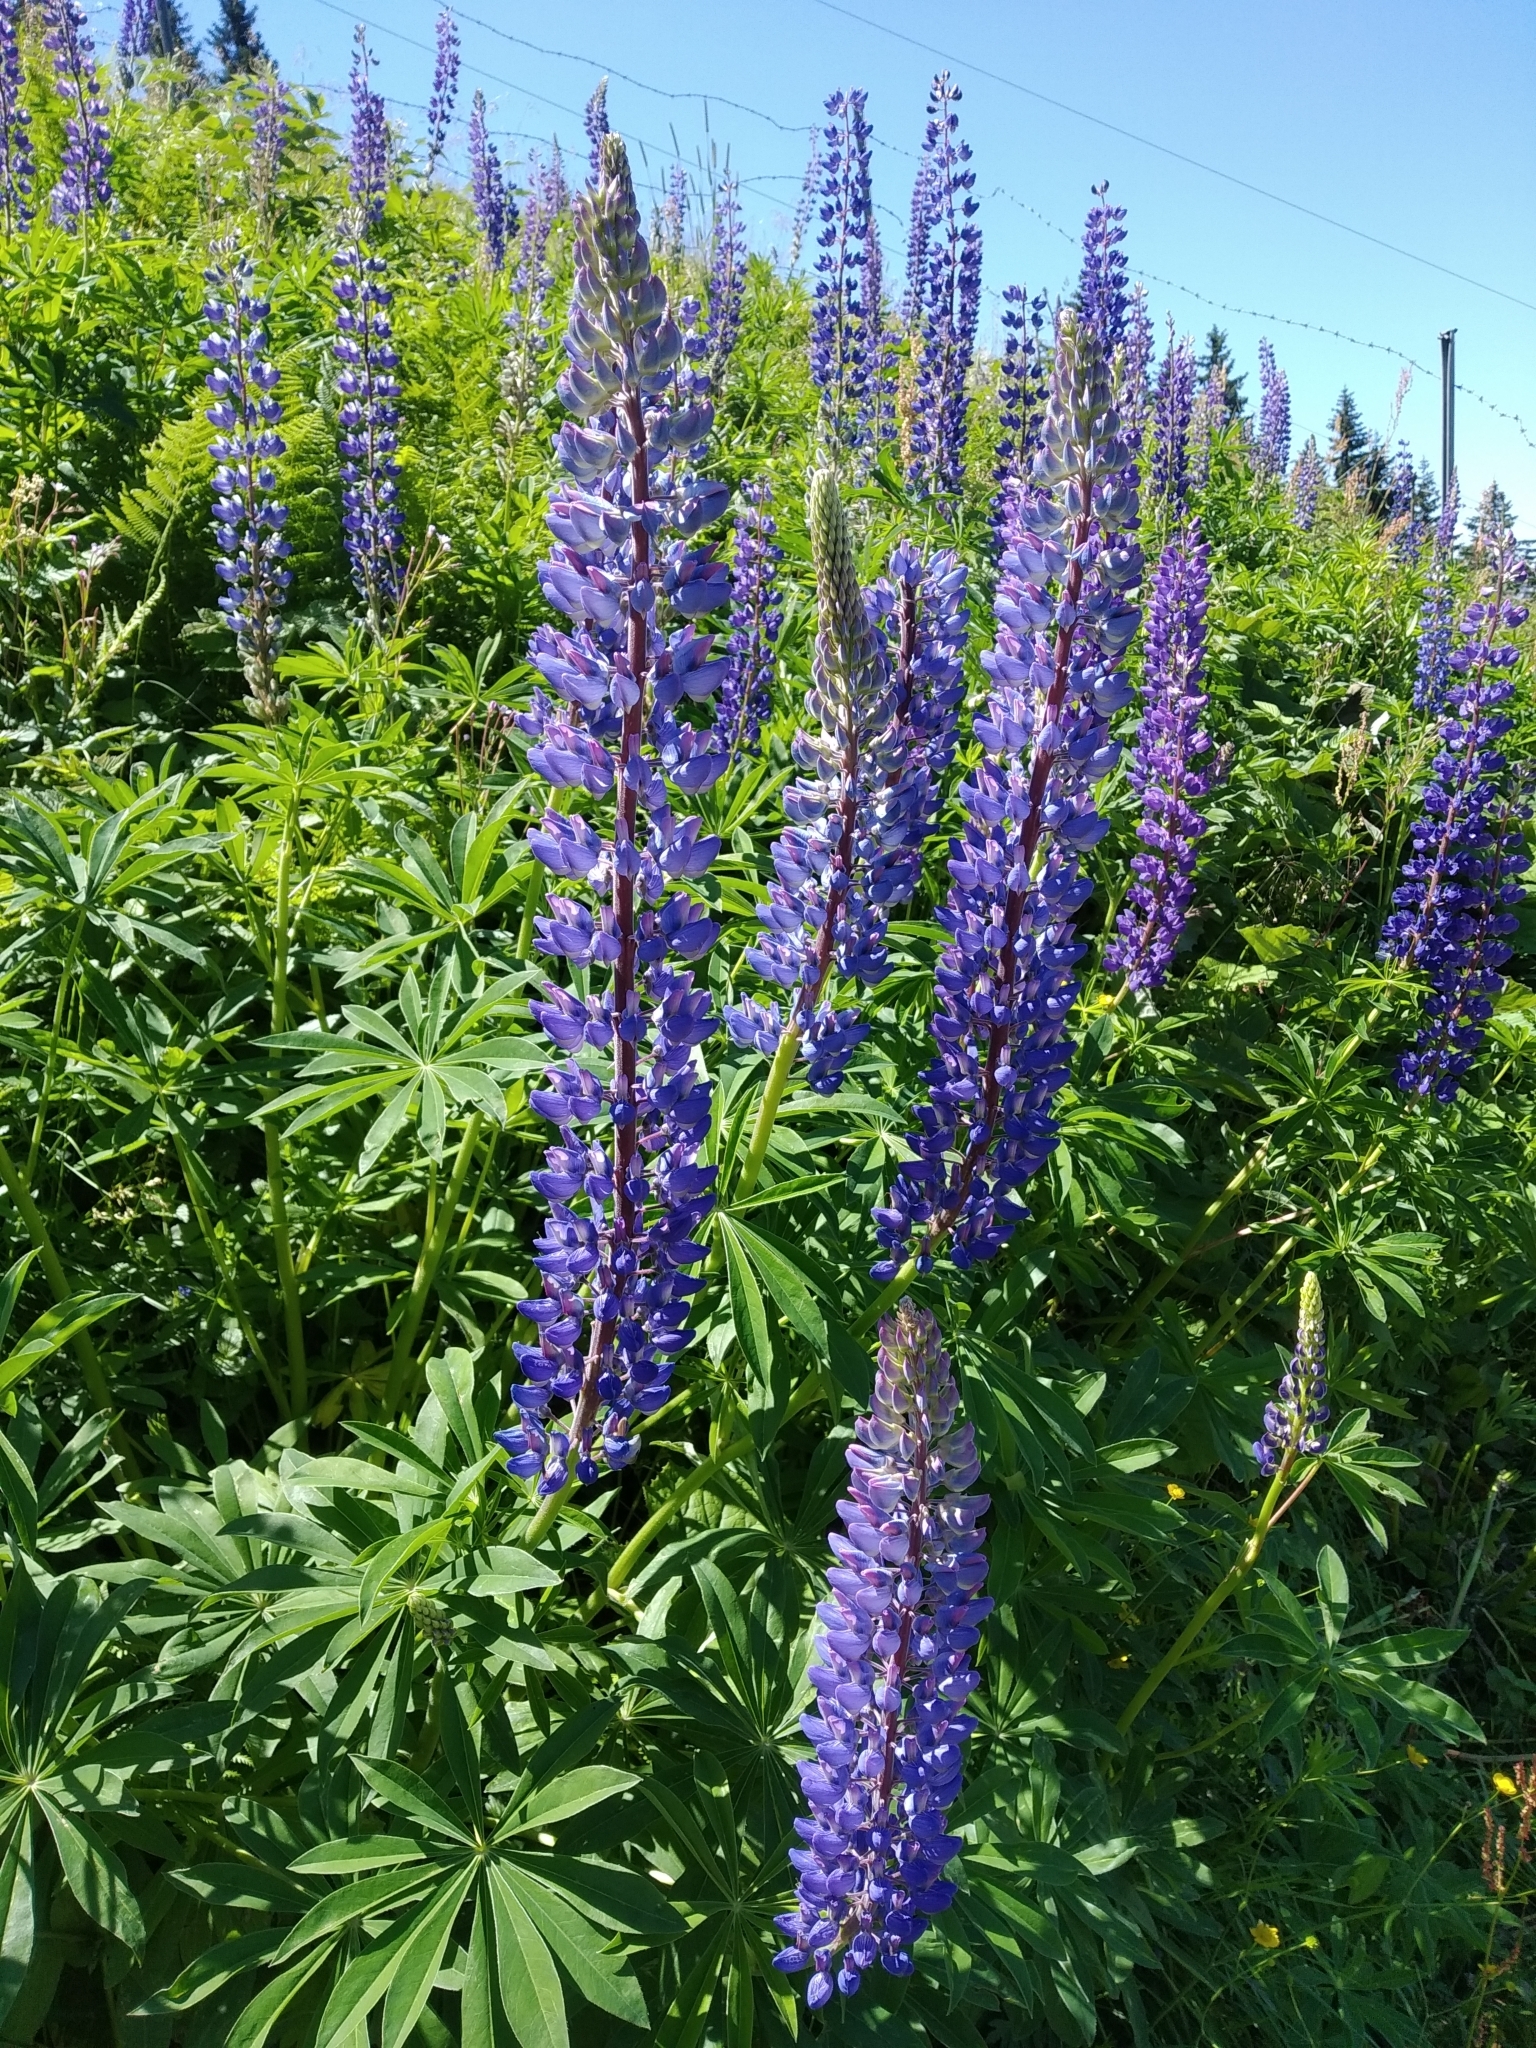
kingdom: Plantae
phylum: Tracheophyta
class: Magnoliopsida
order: Fabales
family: Fabaceae
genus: Lupinus
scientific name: Lupinus polyphyllus
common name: Garden lupin
